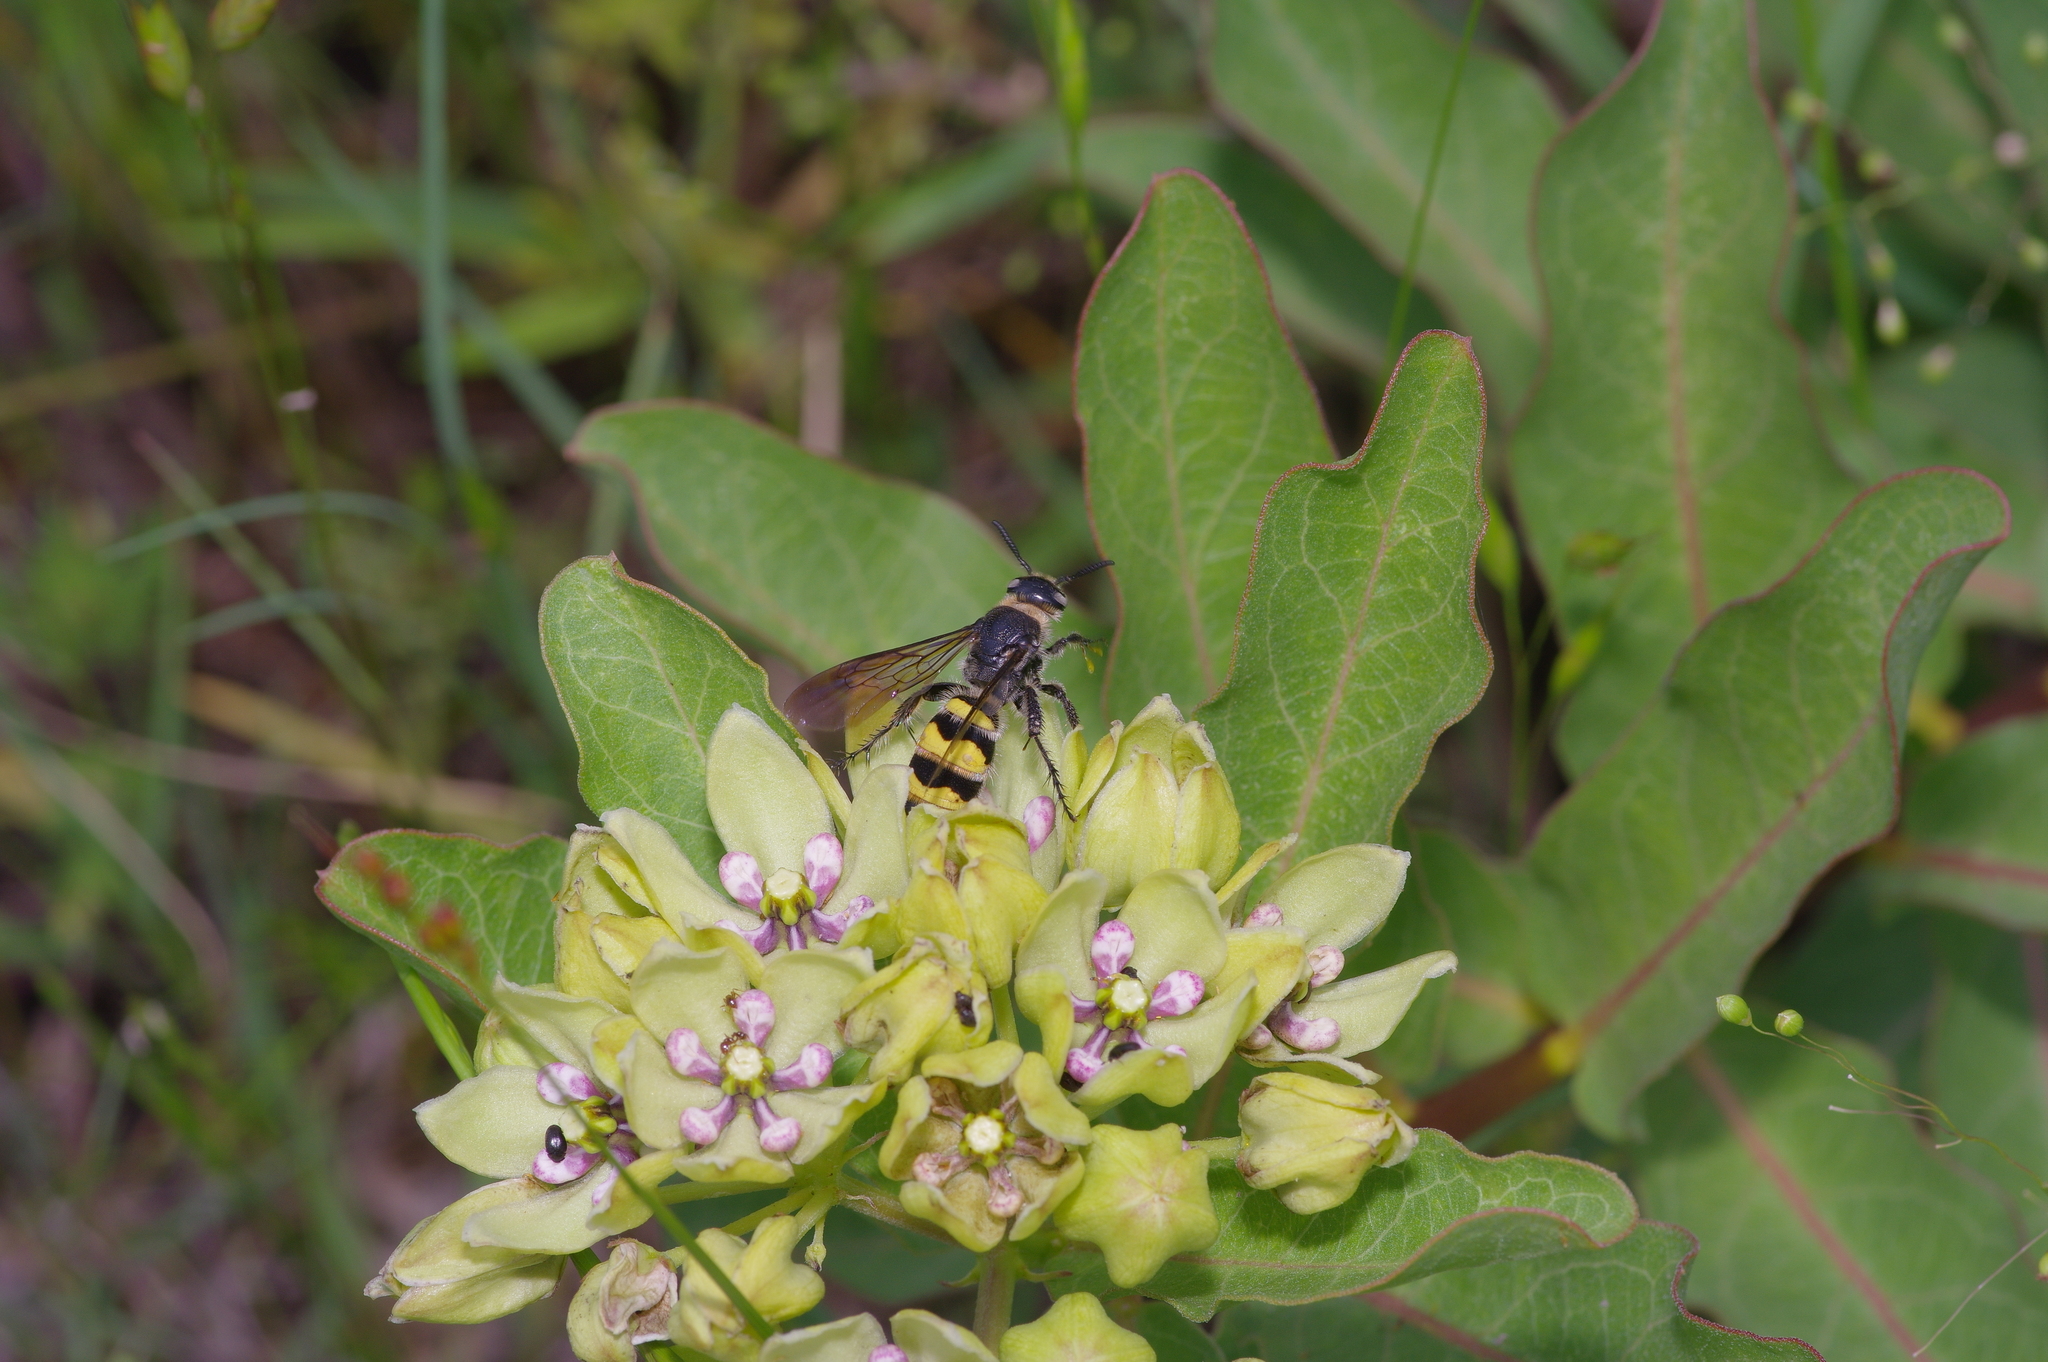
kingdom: Animalia
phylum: Arthropoda
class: Insecta
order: Hymenoptera
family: Scoliidae
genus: Dielis
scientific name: Dielis
